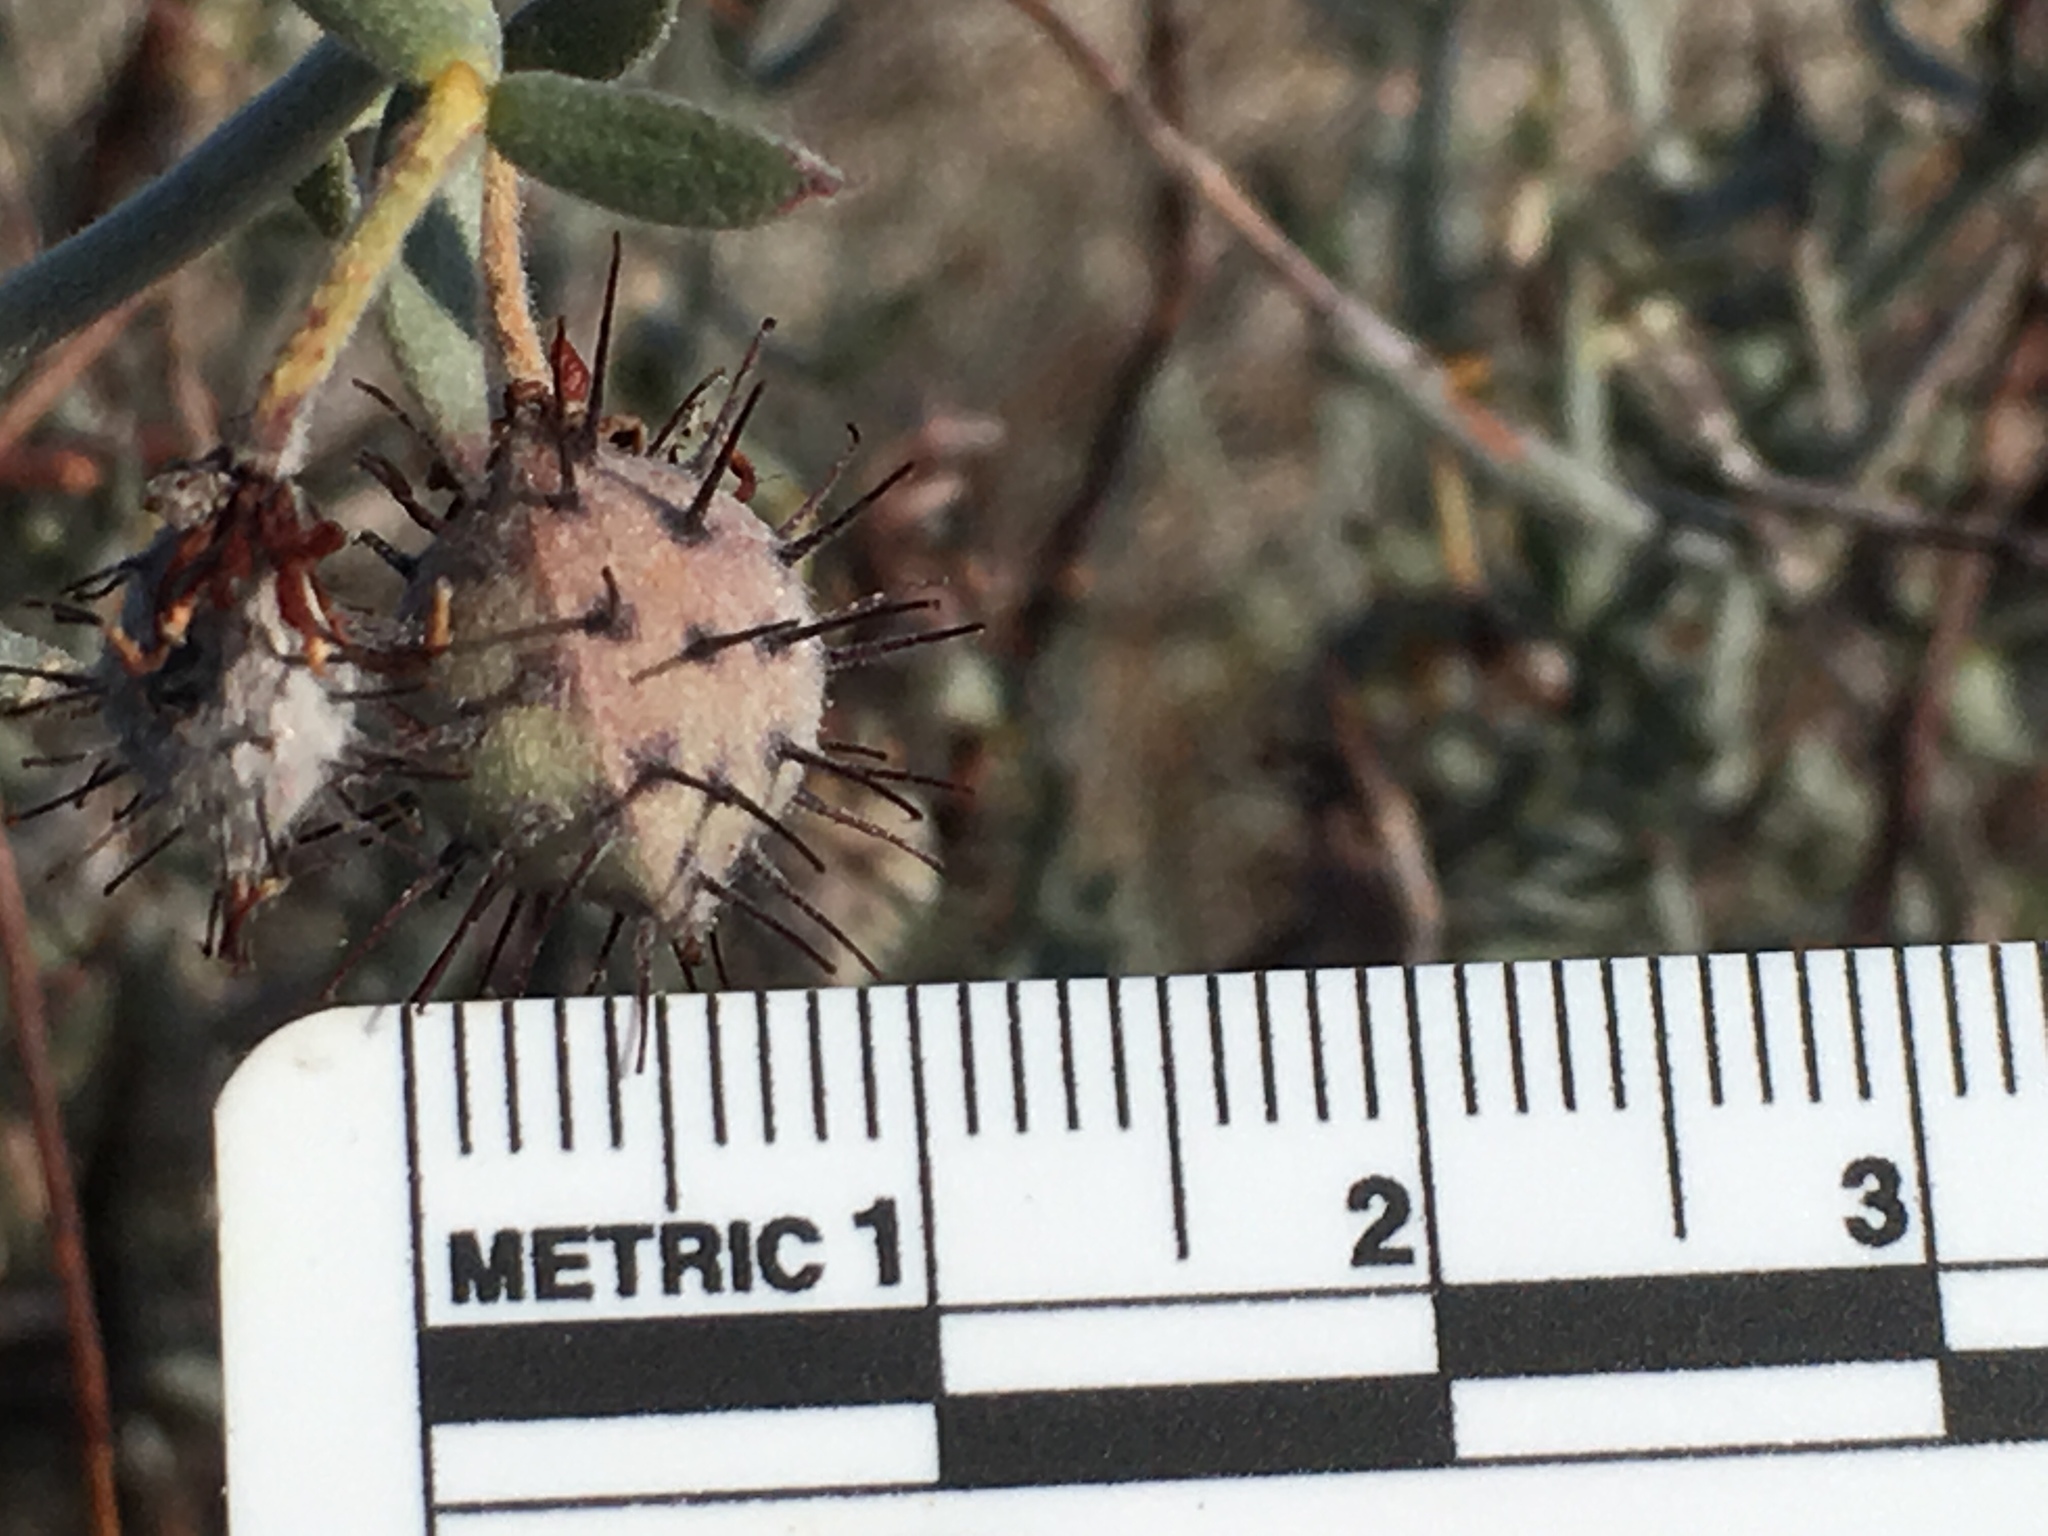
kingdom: Plantae
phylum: Tracheophyta
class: Magnoliopsida
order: Zygophyllales
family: Krameriaceae
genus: Krameria
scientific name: Krameria bicolor
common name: White ratany
